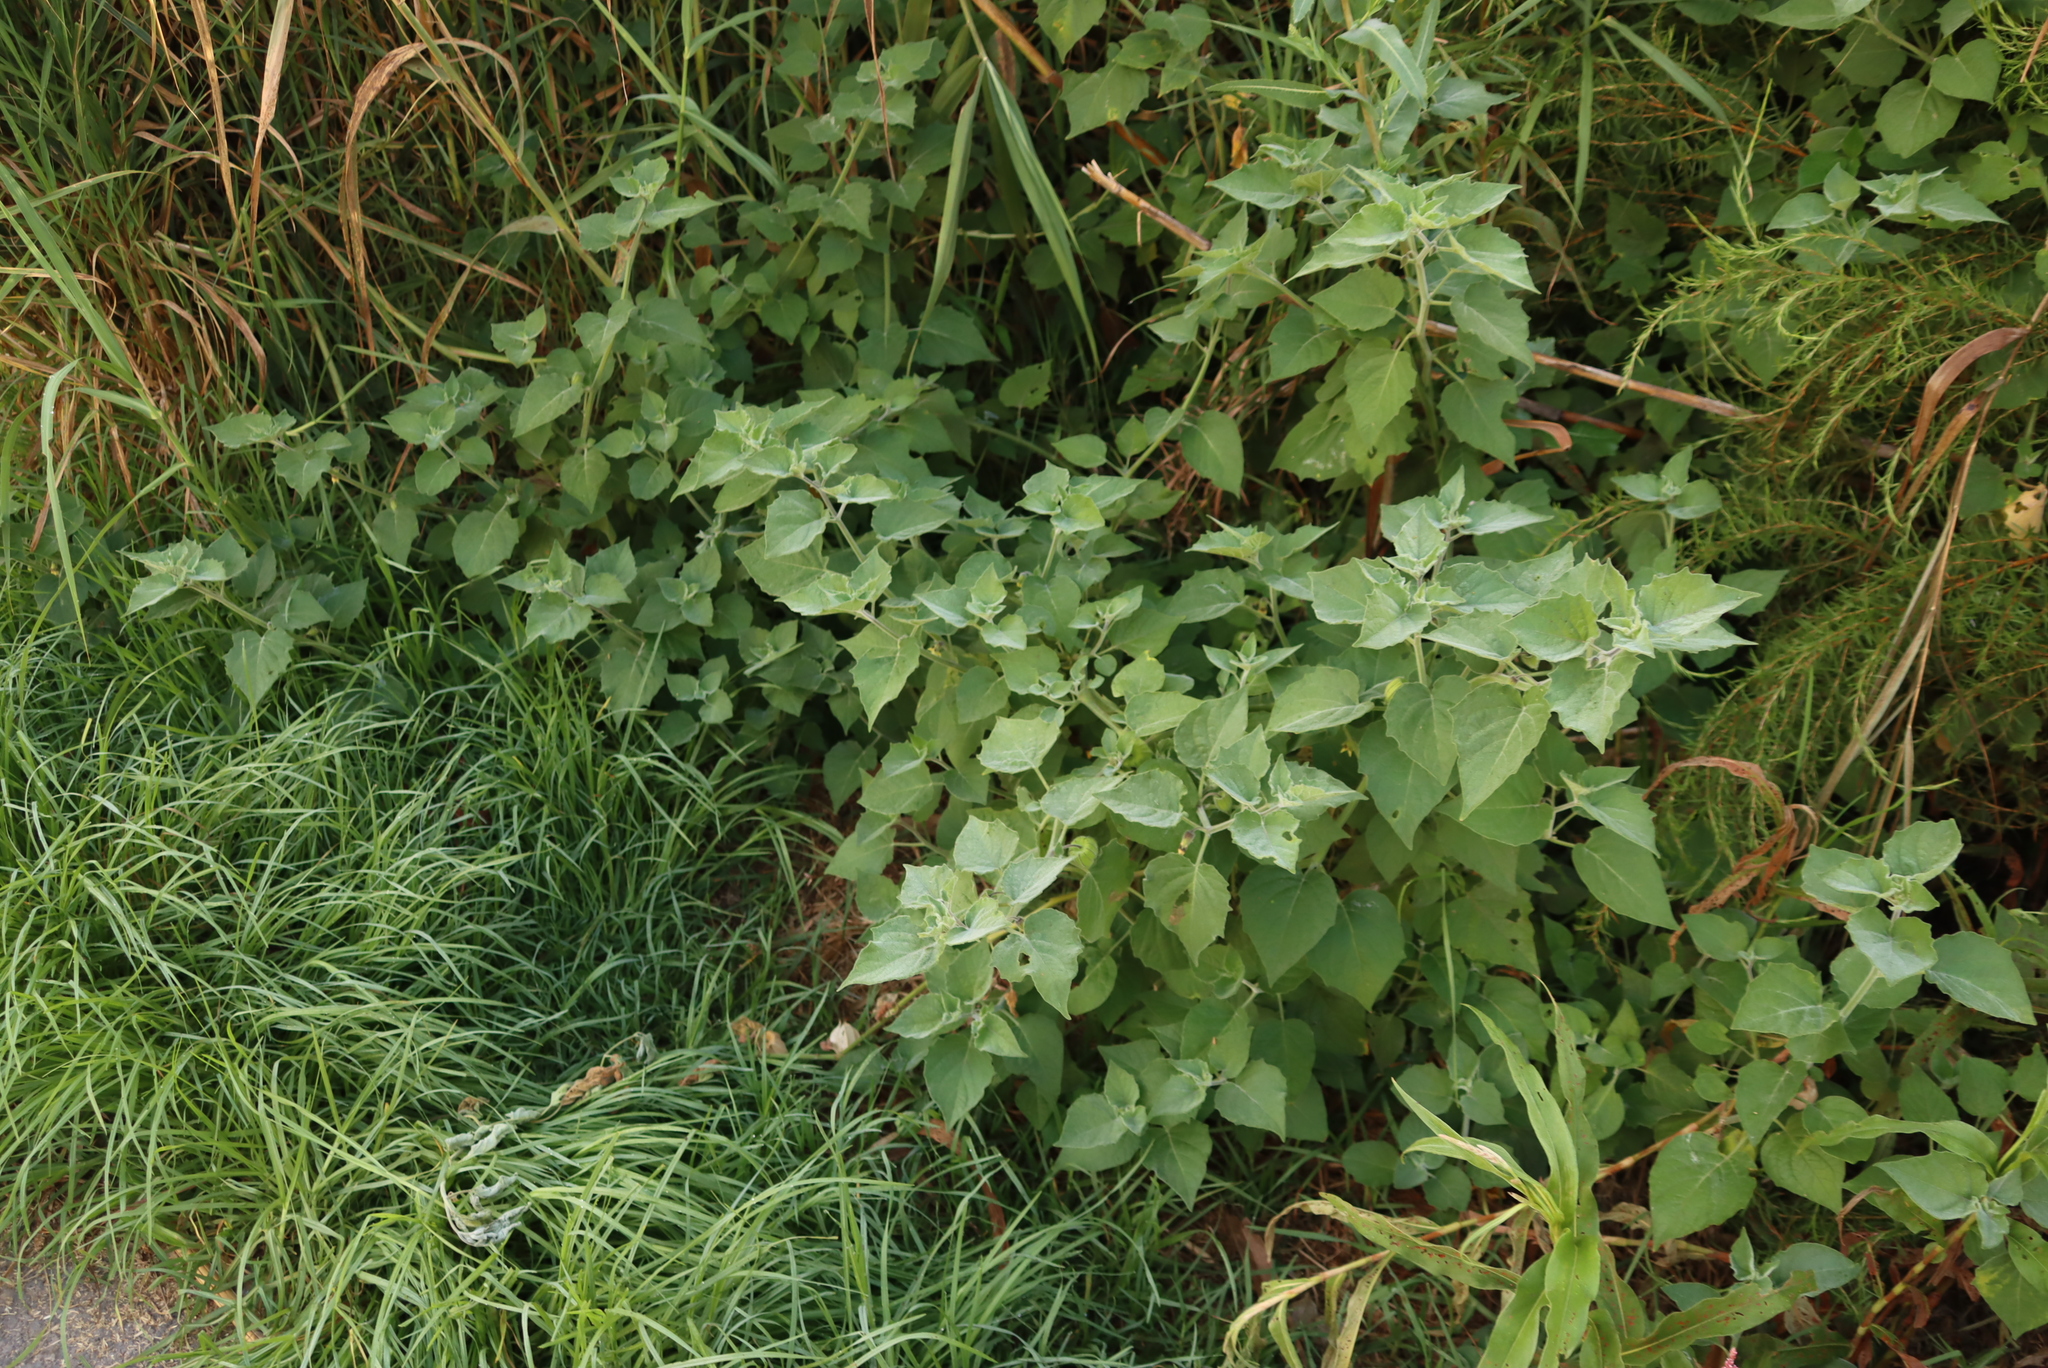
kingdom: Plantae
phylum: Tracheophyta
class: Magnoliopsida
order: Solanales
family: Solanaceae
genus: Physalis
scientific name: Physalis peruviana
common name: Cape-gooseberry
